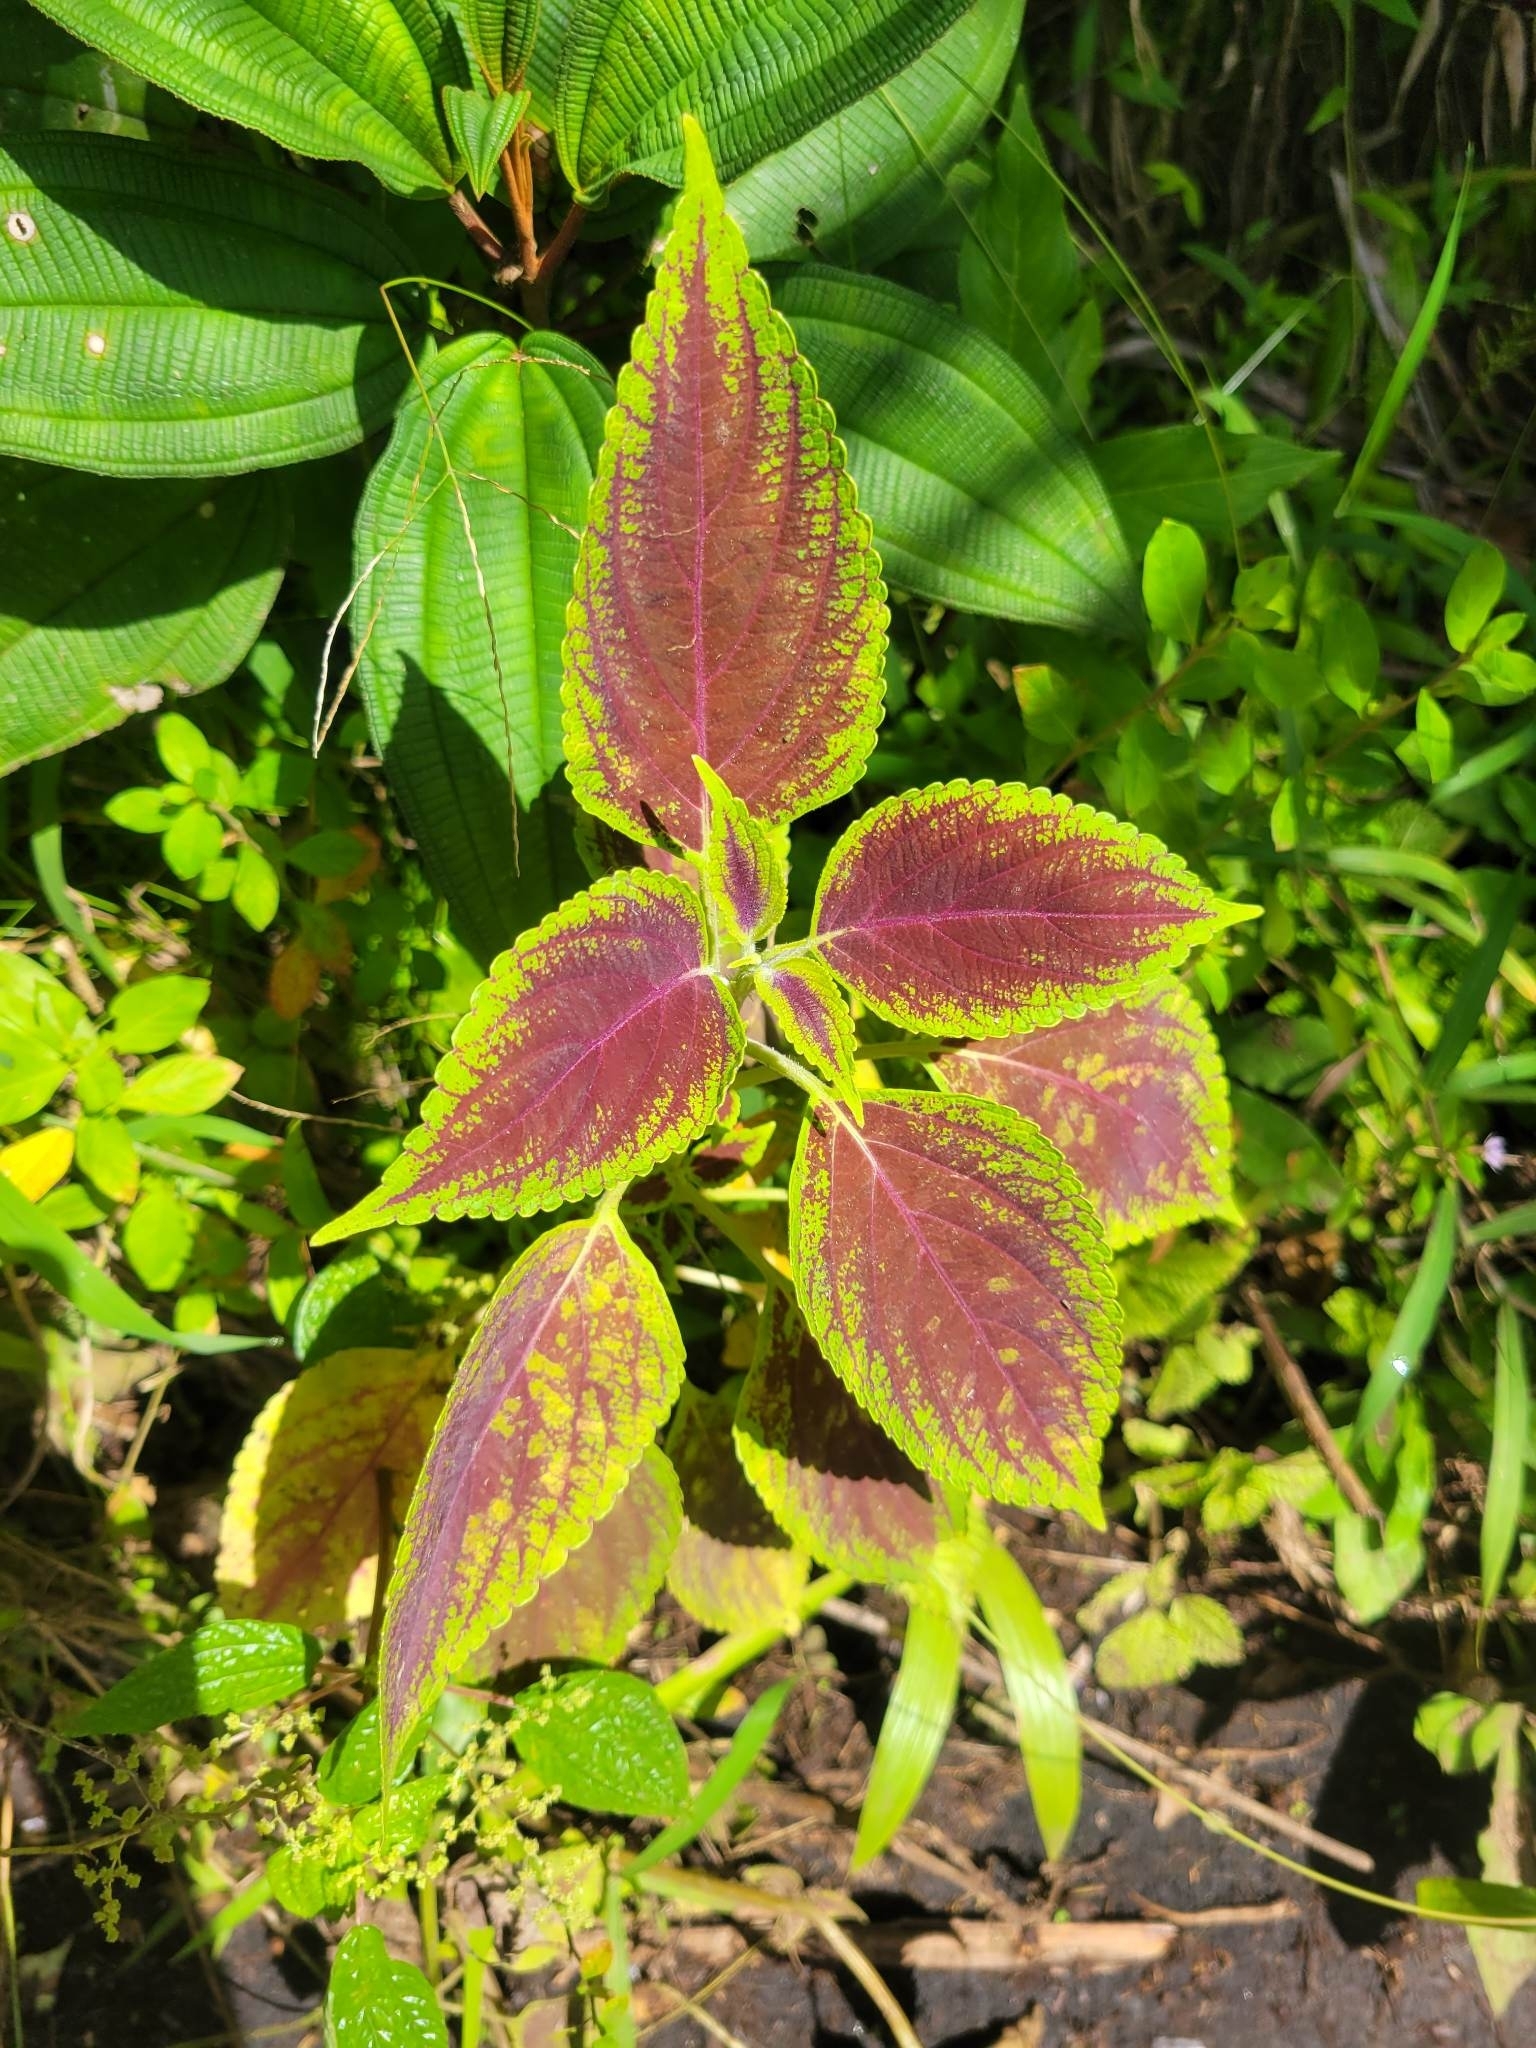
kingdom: Plantae
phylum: Tracheophyta
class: Magnoliopsida
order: Lamiales
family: Lamiaceae
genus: Coleus
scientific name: Coleus scutellarioides
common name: Coleus
